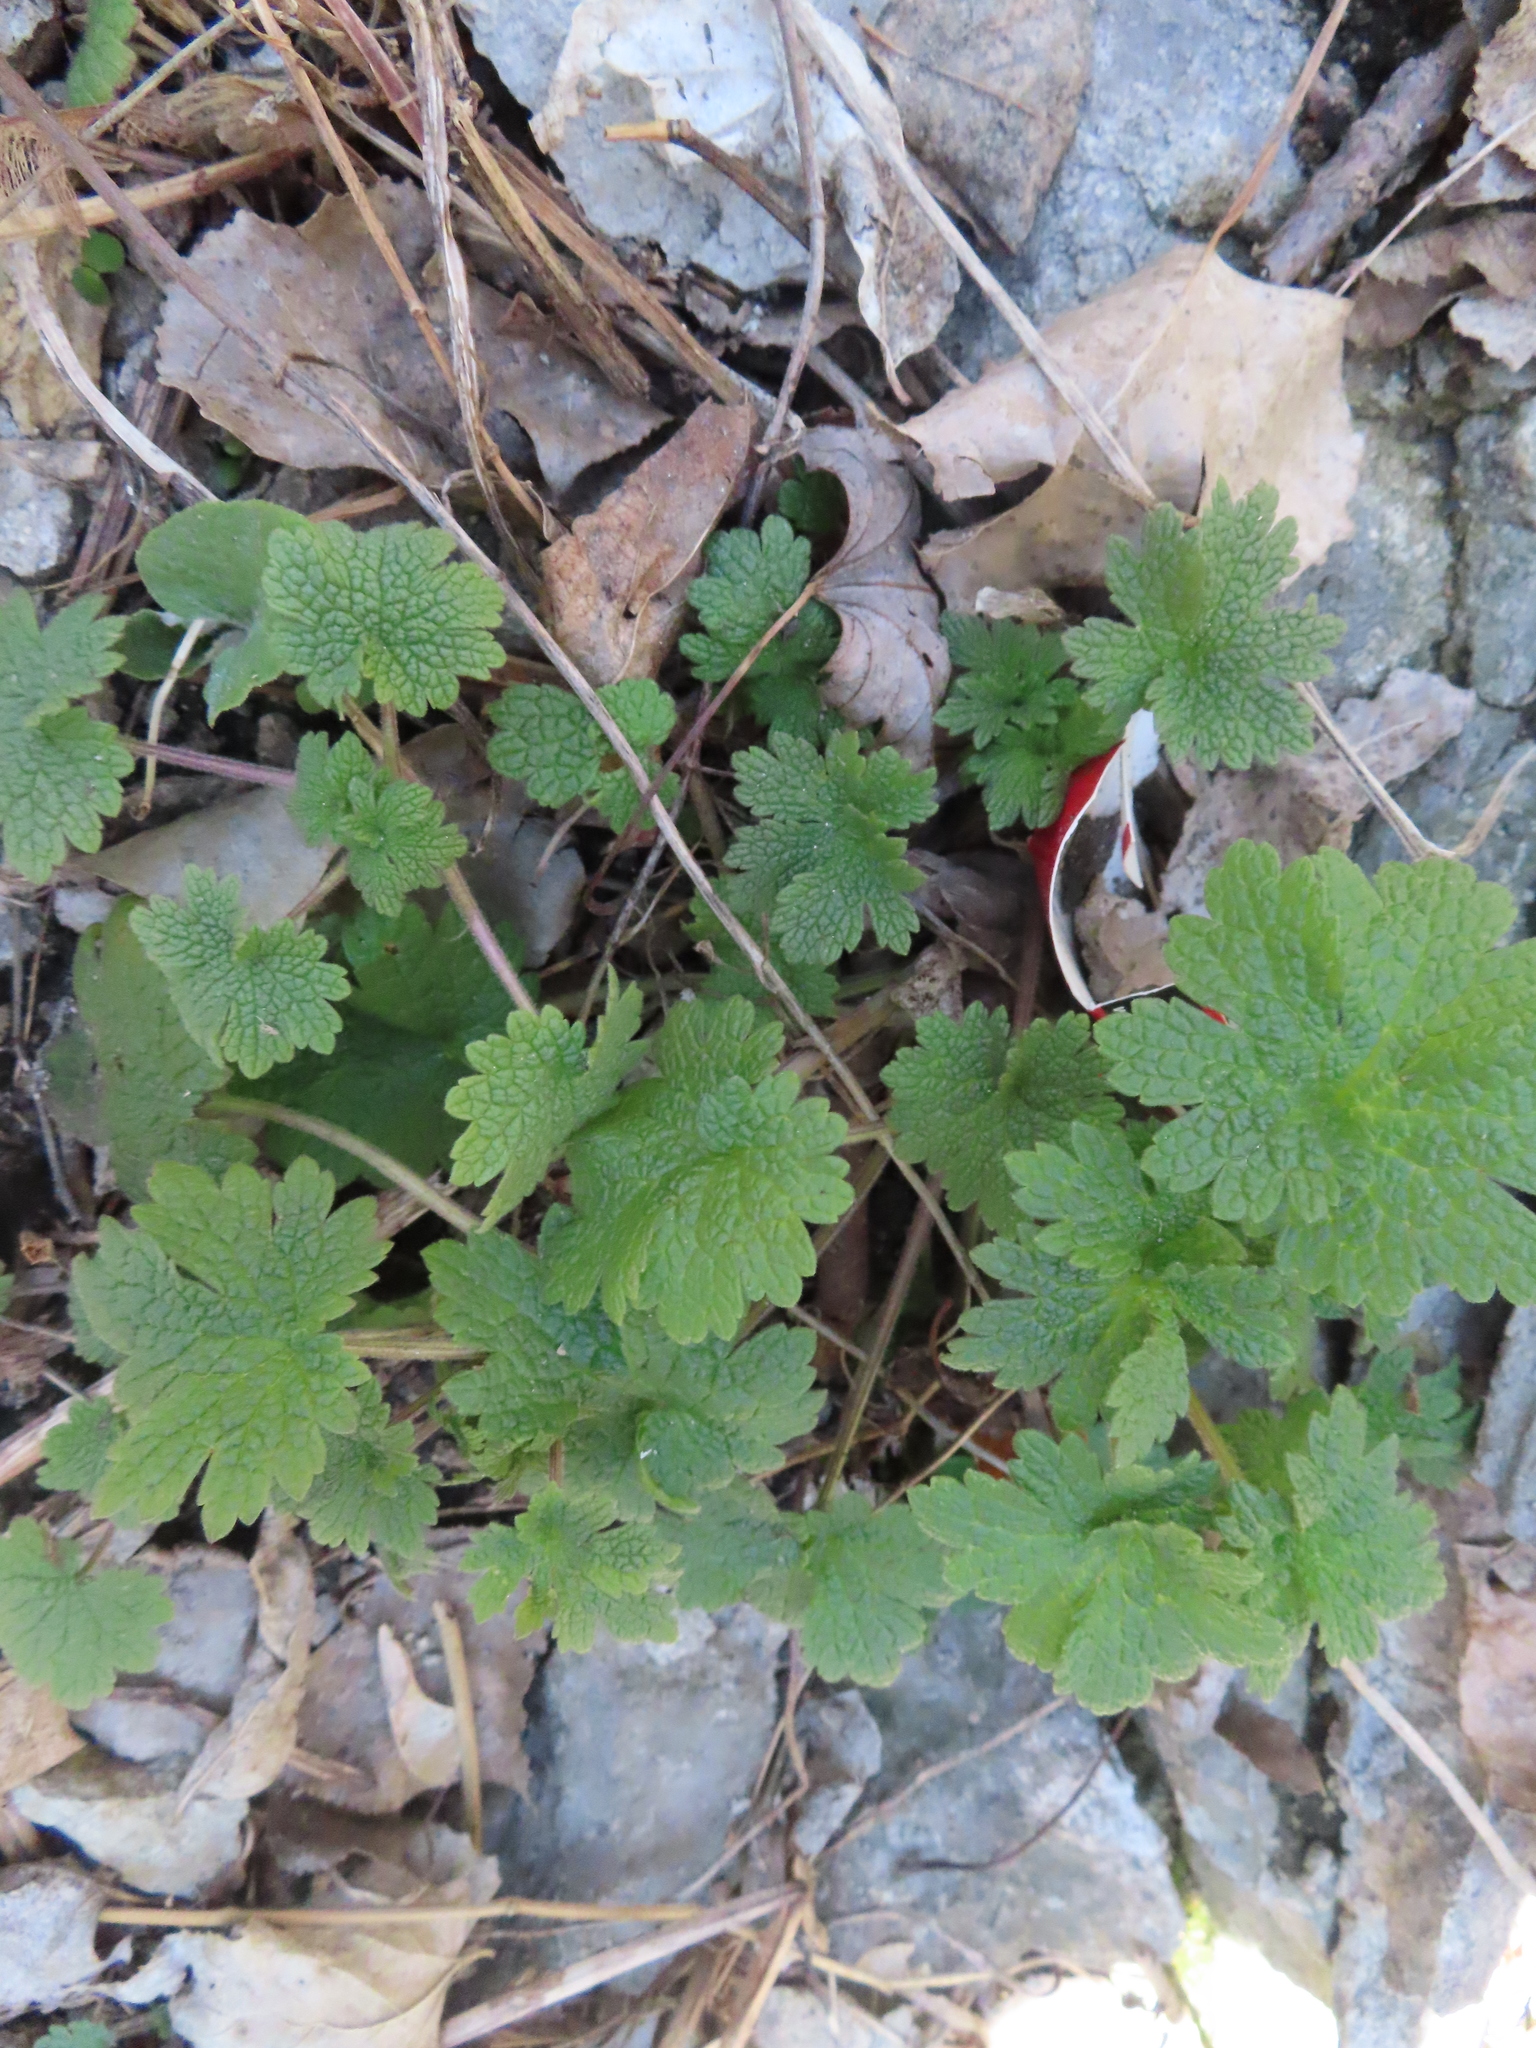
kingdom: Plantae
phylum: Tracheophyta
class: Magnoliopsida
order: Lamiales
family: Lamiaceae
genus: Leonurus
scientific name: Leonurus cardiaca
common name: Motherwort
